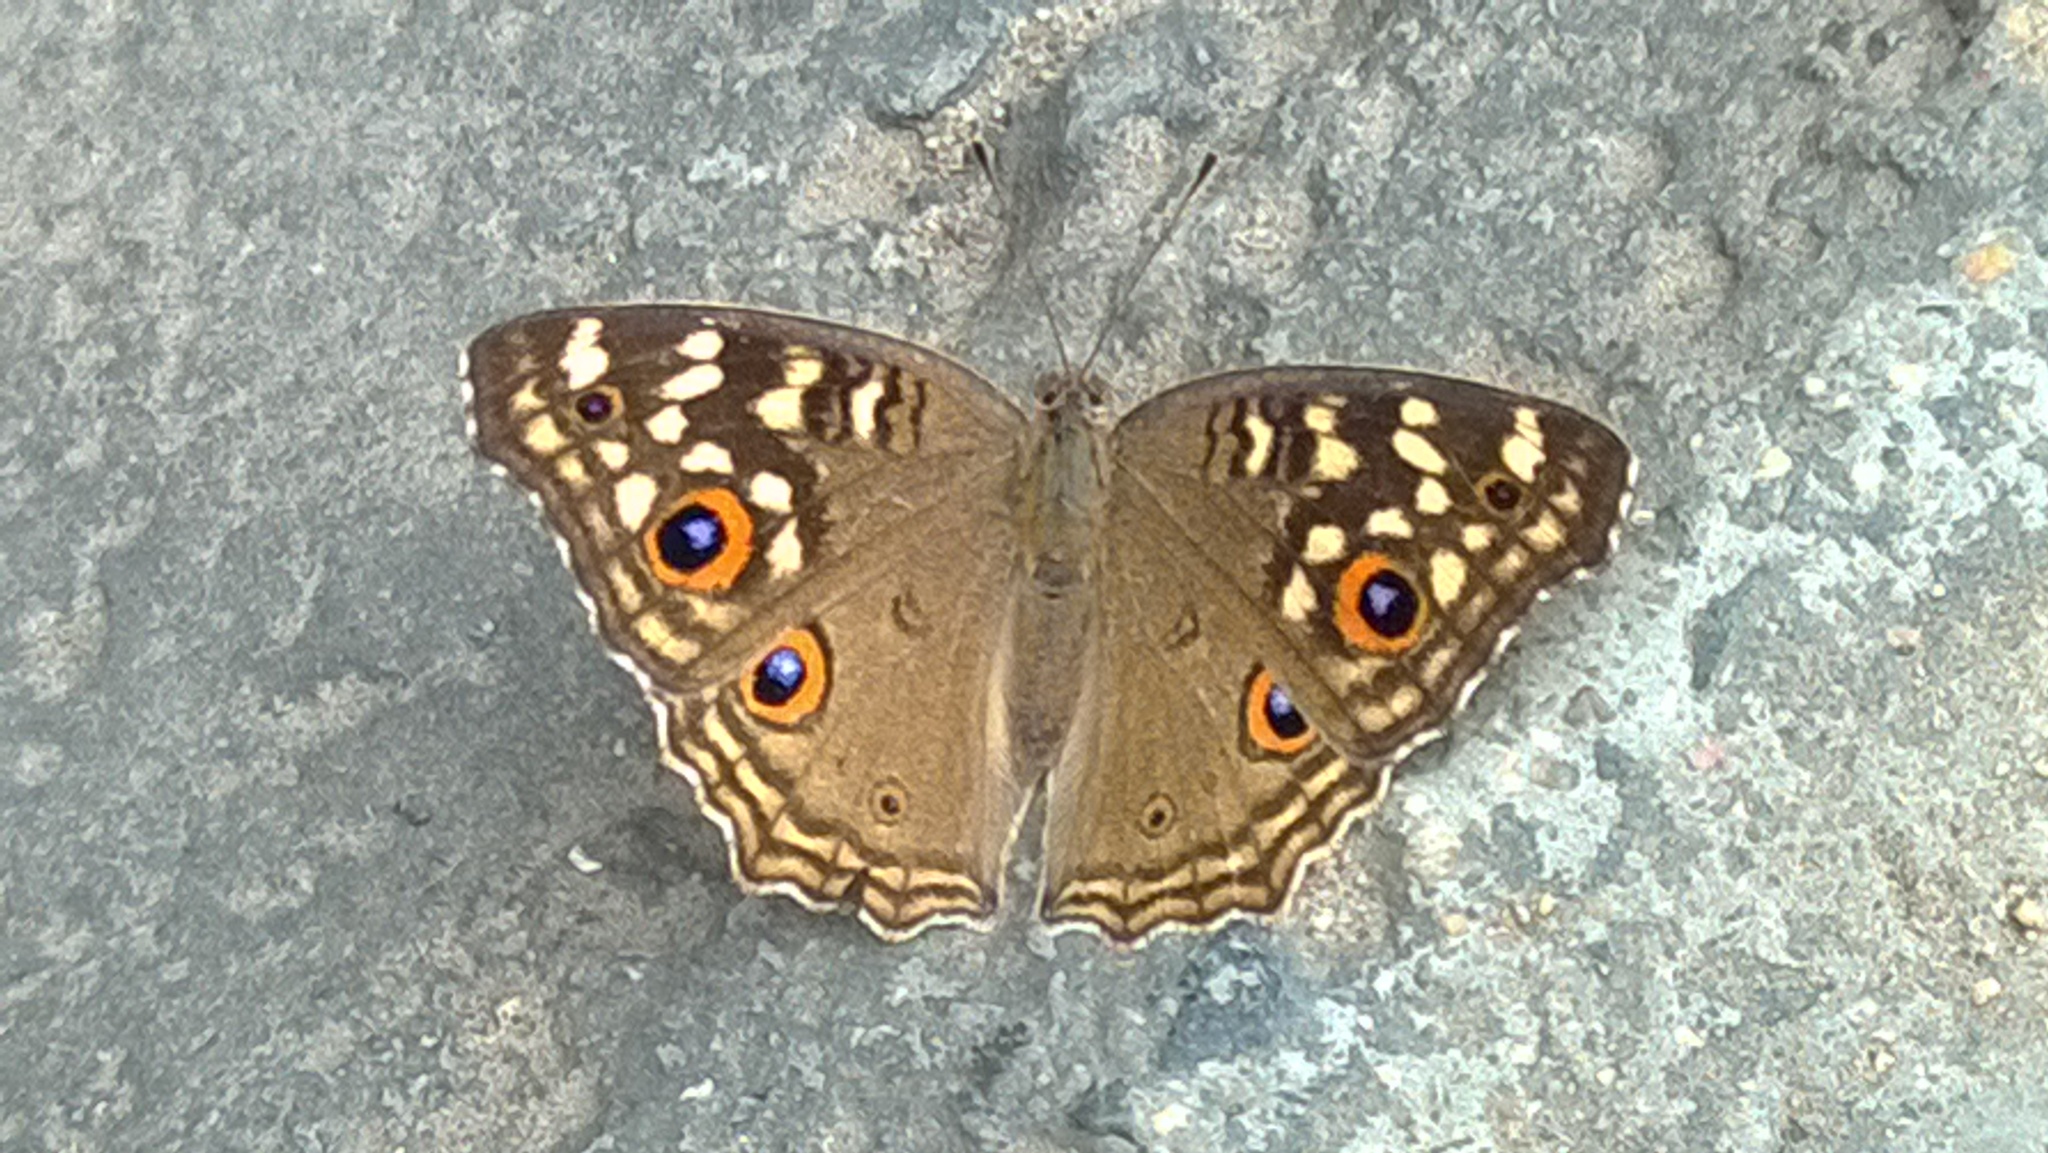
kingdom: Animalia
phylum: Arthropoda
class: Insecta
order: Lepidoptera
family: Nymphalidae
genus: Junonia
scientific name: Junonia lemonias
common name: Lemon pansy
